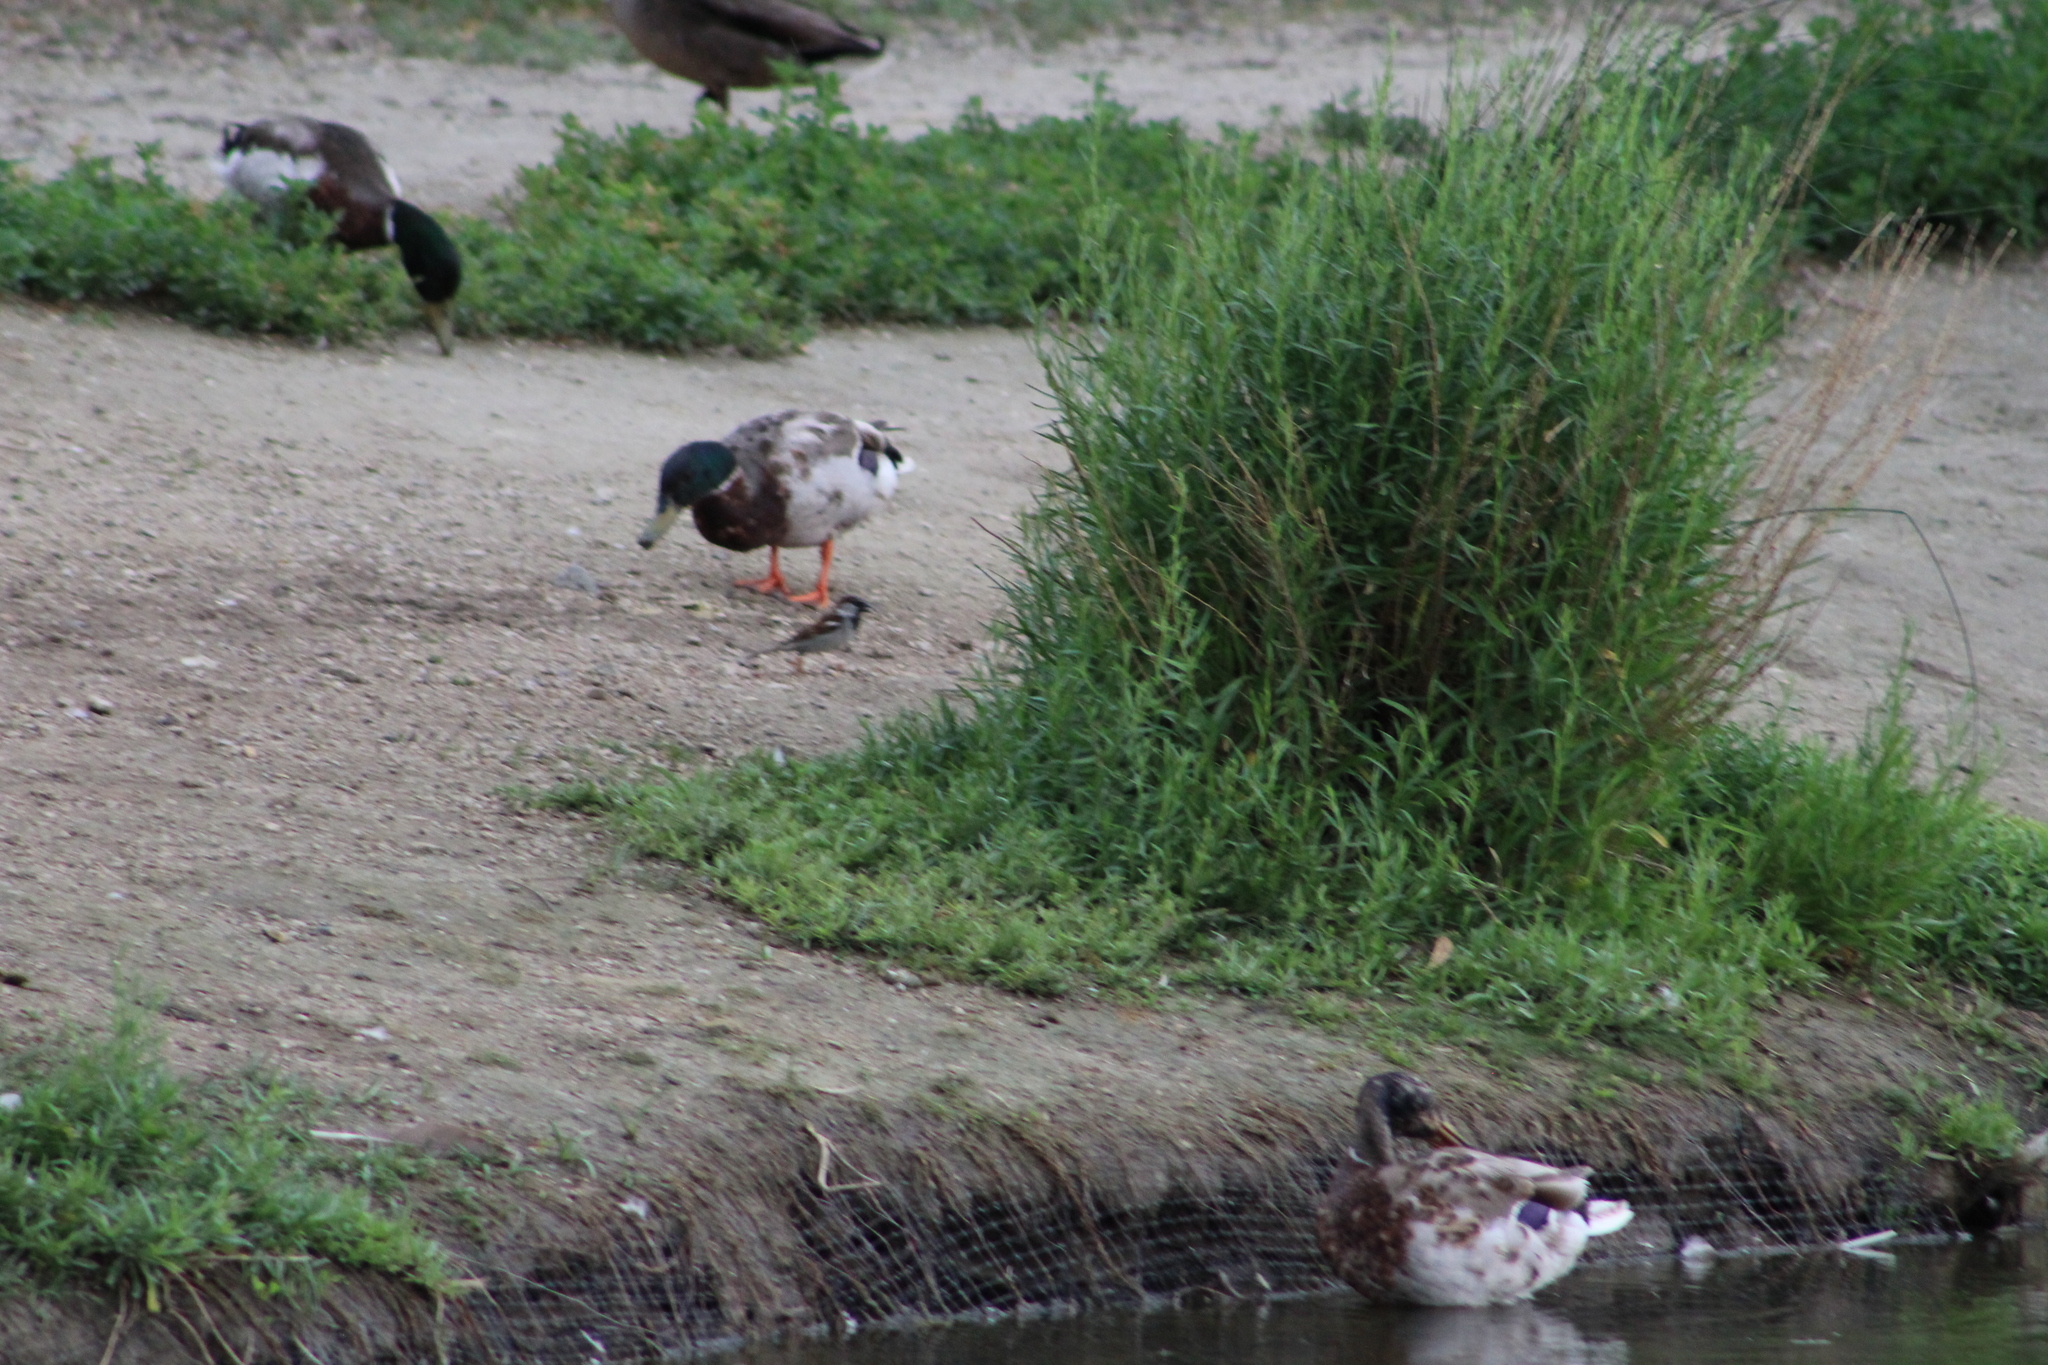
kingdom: Animalia
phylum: Chordata
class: Aves
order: Anseriformes
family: Anatidae
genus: Anas
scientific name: Anas platyrhynchos
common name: Mallard
